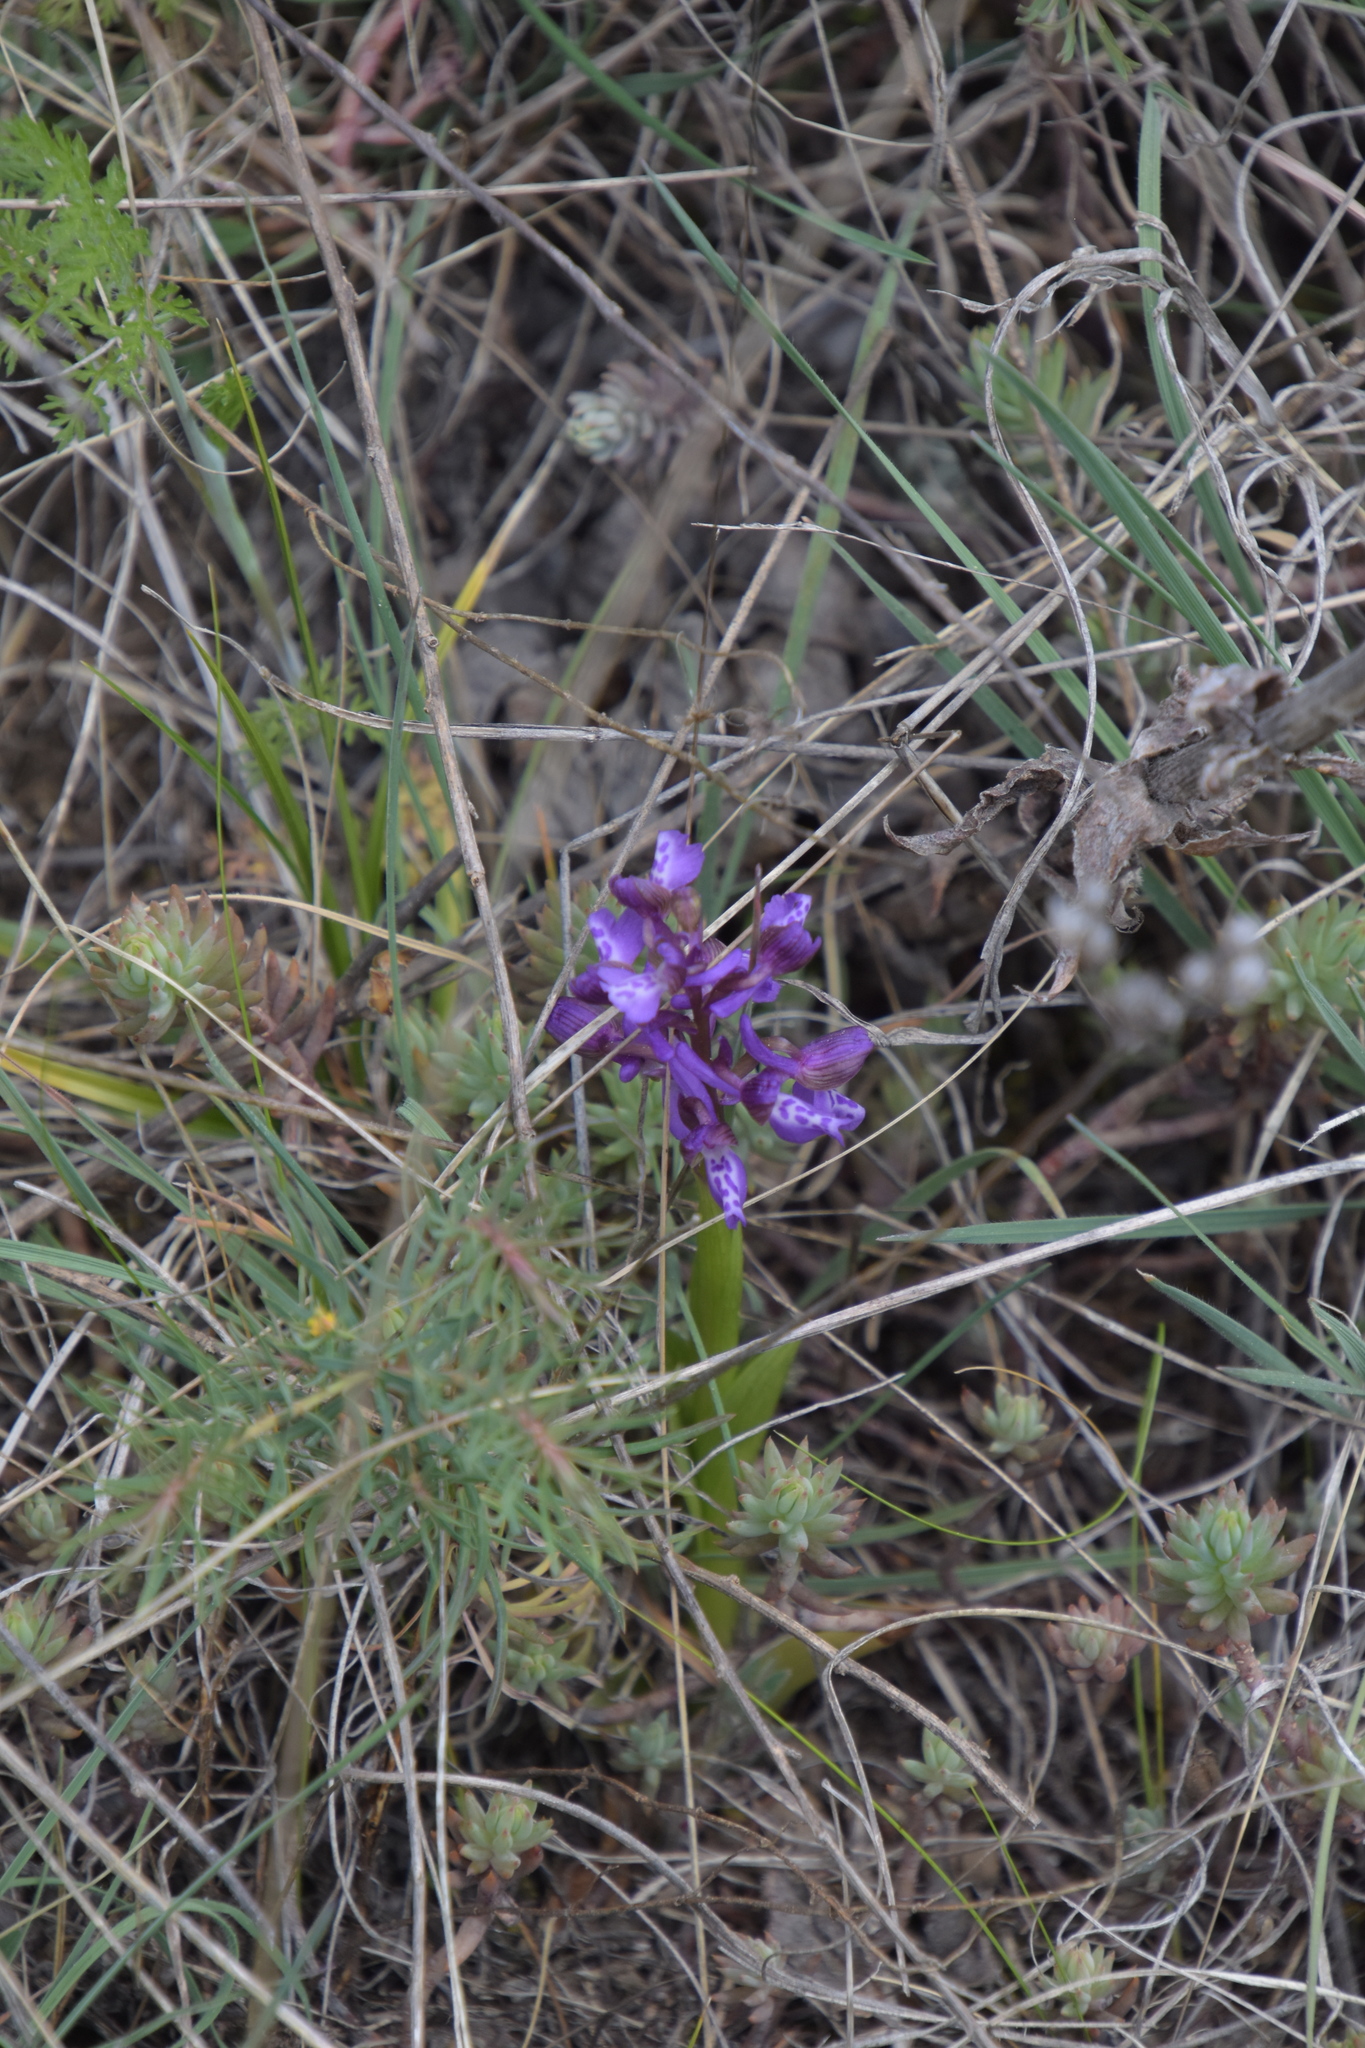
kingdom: Plantae
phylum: Tracheophyta
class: Liliopsida
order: Asparagales
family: Orchidaceae
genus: Anacamptis
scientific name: Anacamptis morio
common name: Green-winged orchid
